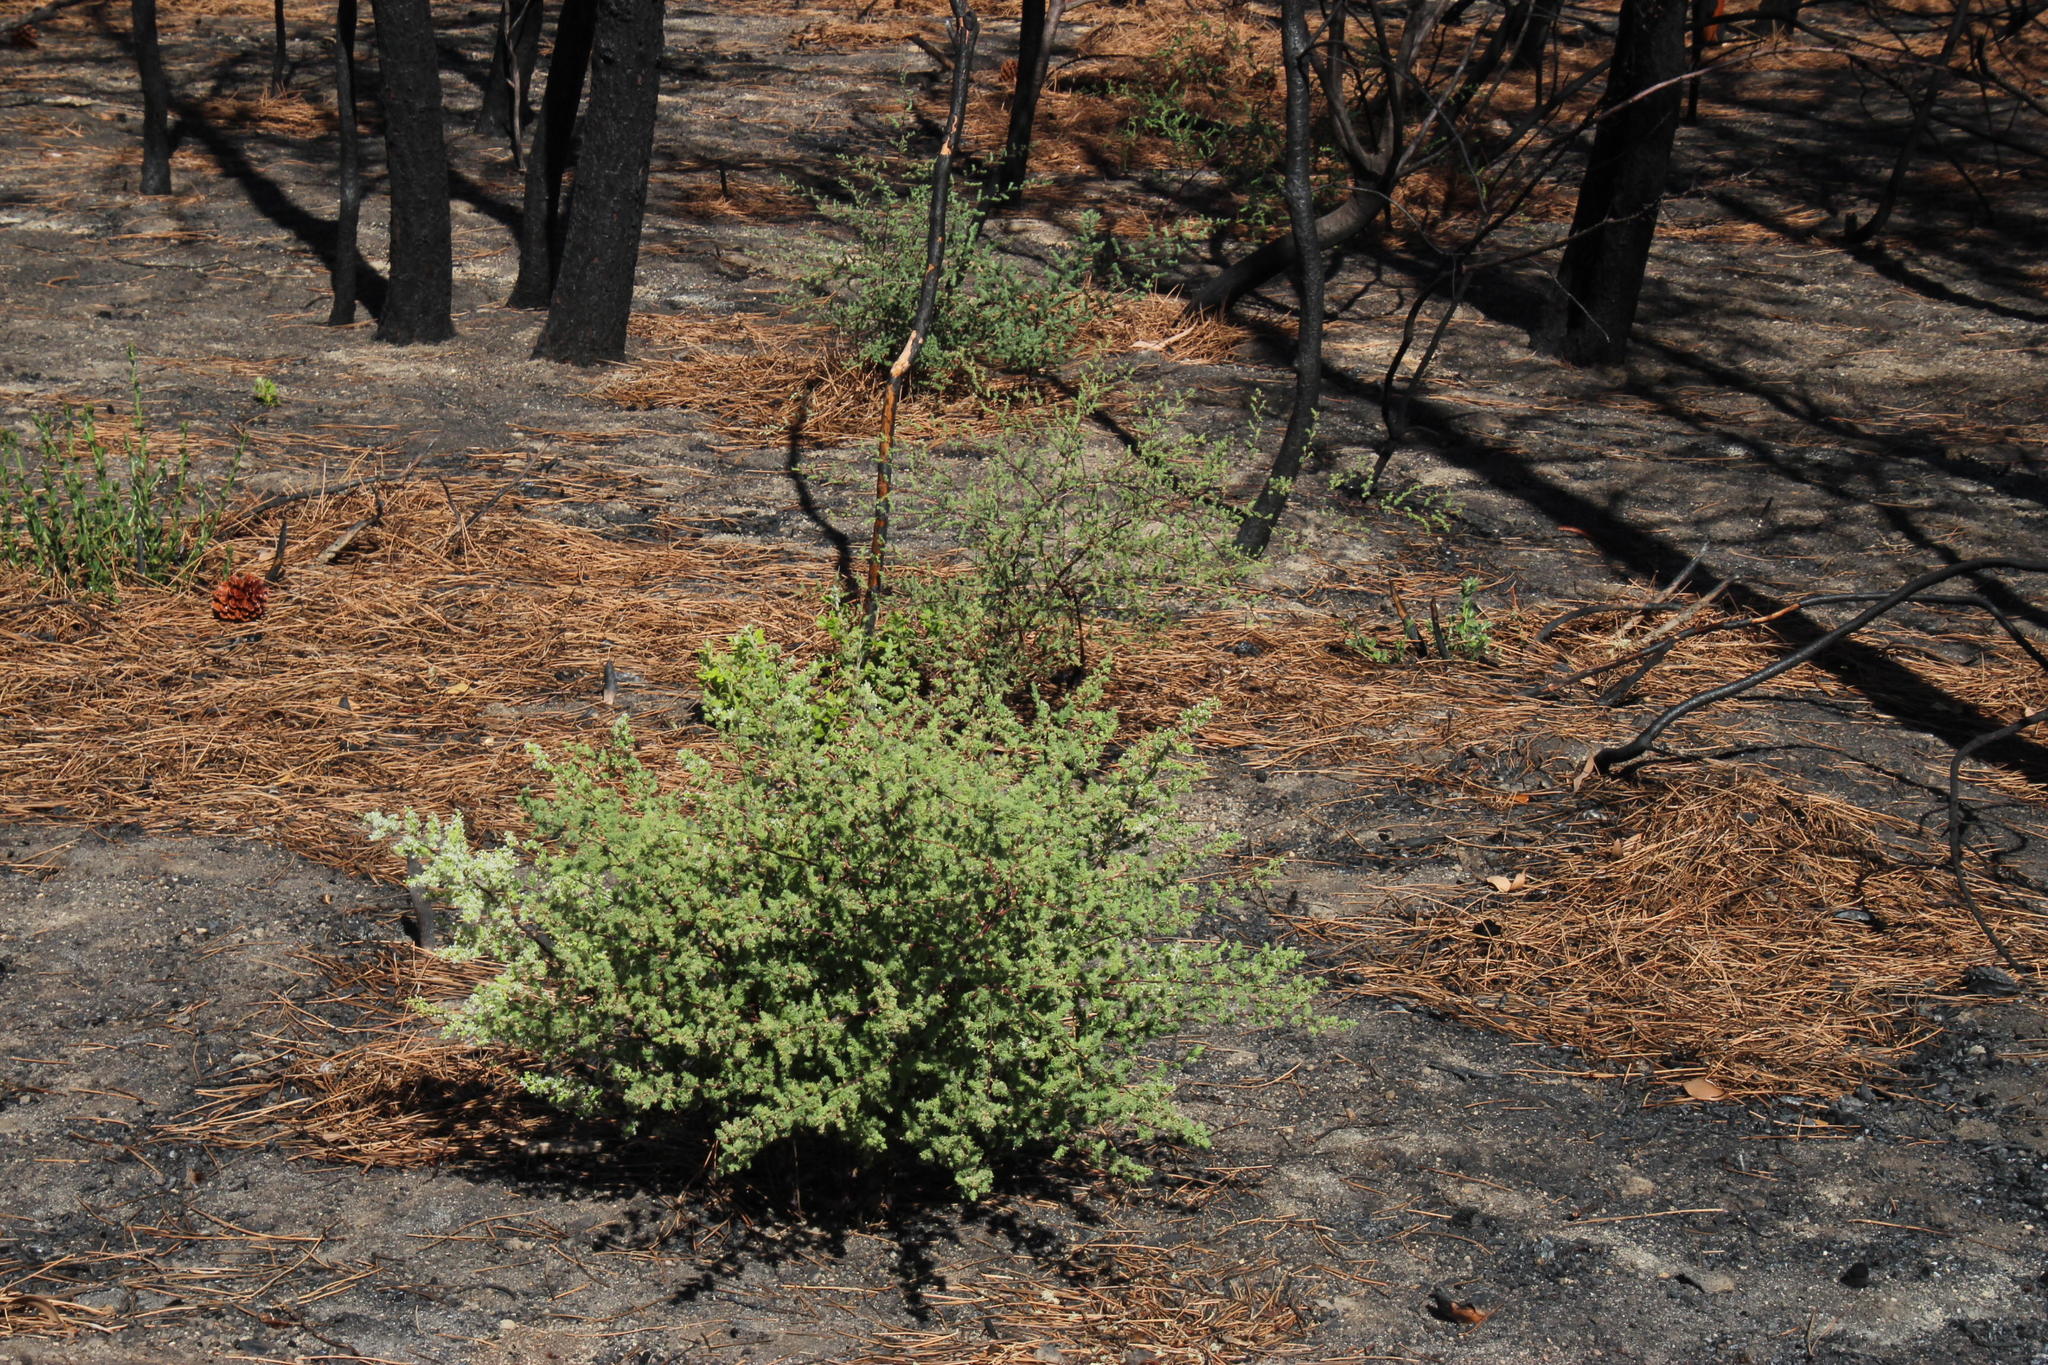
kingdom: Plantae
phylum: Tracheophyta
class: Liliopsida
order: Asparagales
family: Asparagaceae
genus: Asparagus
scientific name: Asparagus rubicundus
